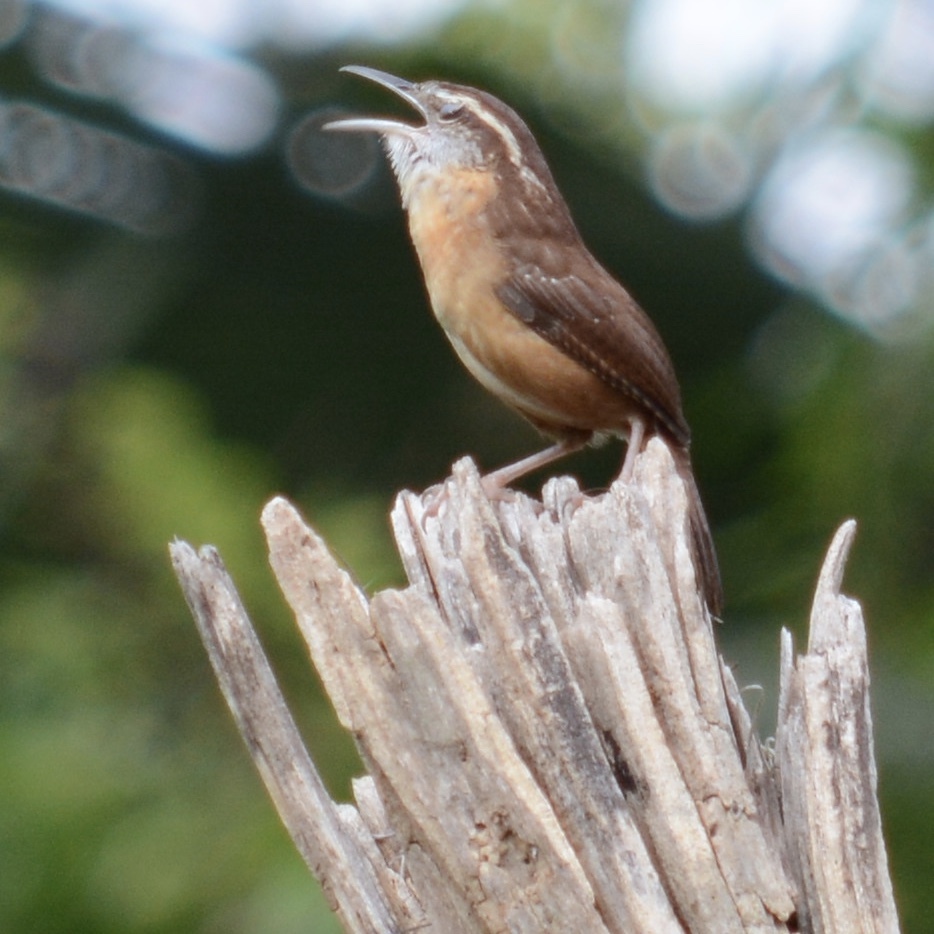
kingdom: Animalia
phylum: Chordata
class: Aves
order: Passeriformes
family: Troglodytidae
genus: Thryothorus
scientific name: Thryothorus ludovicianus
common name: Carolina wren
